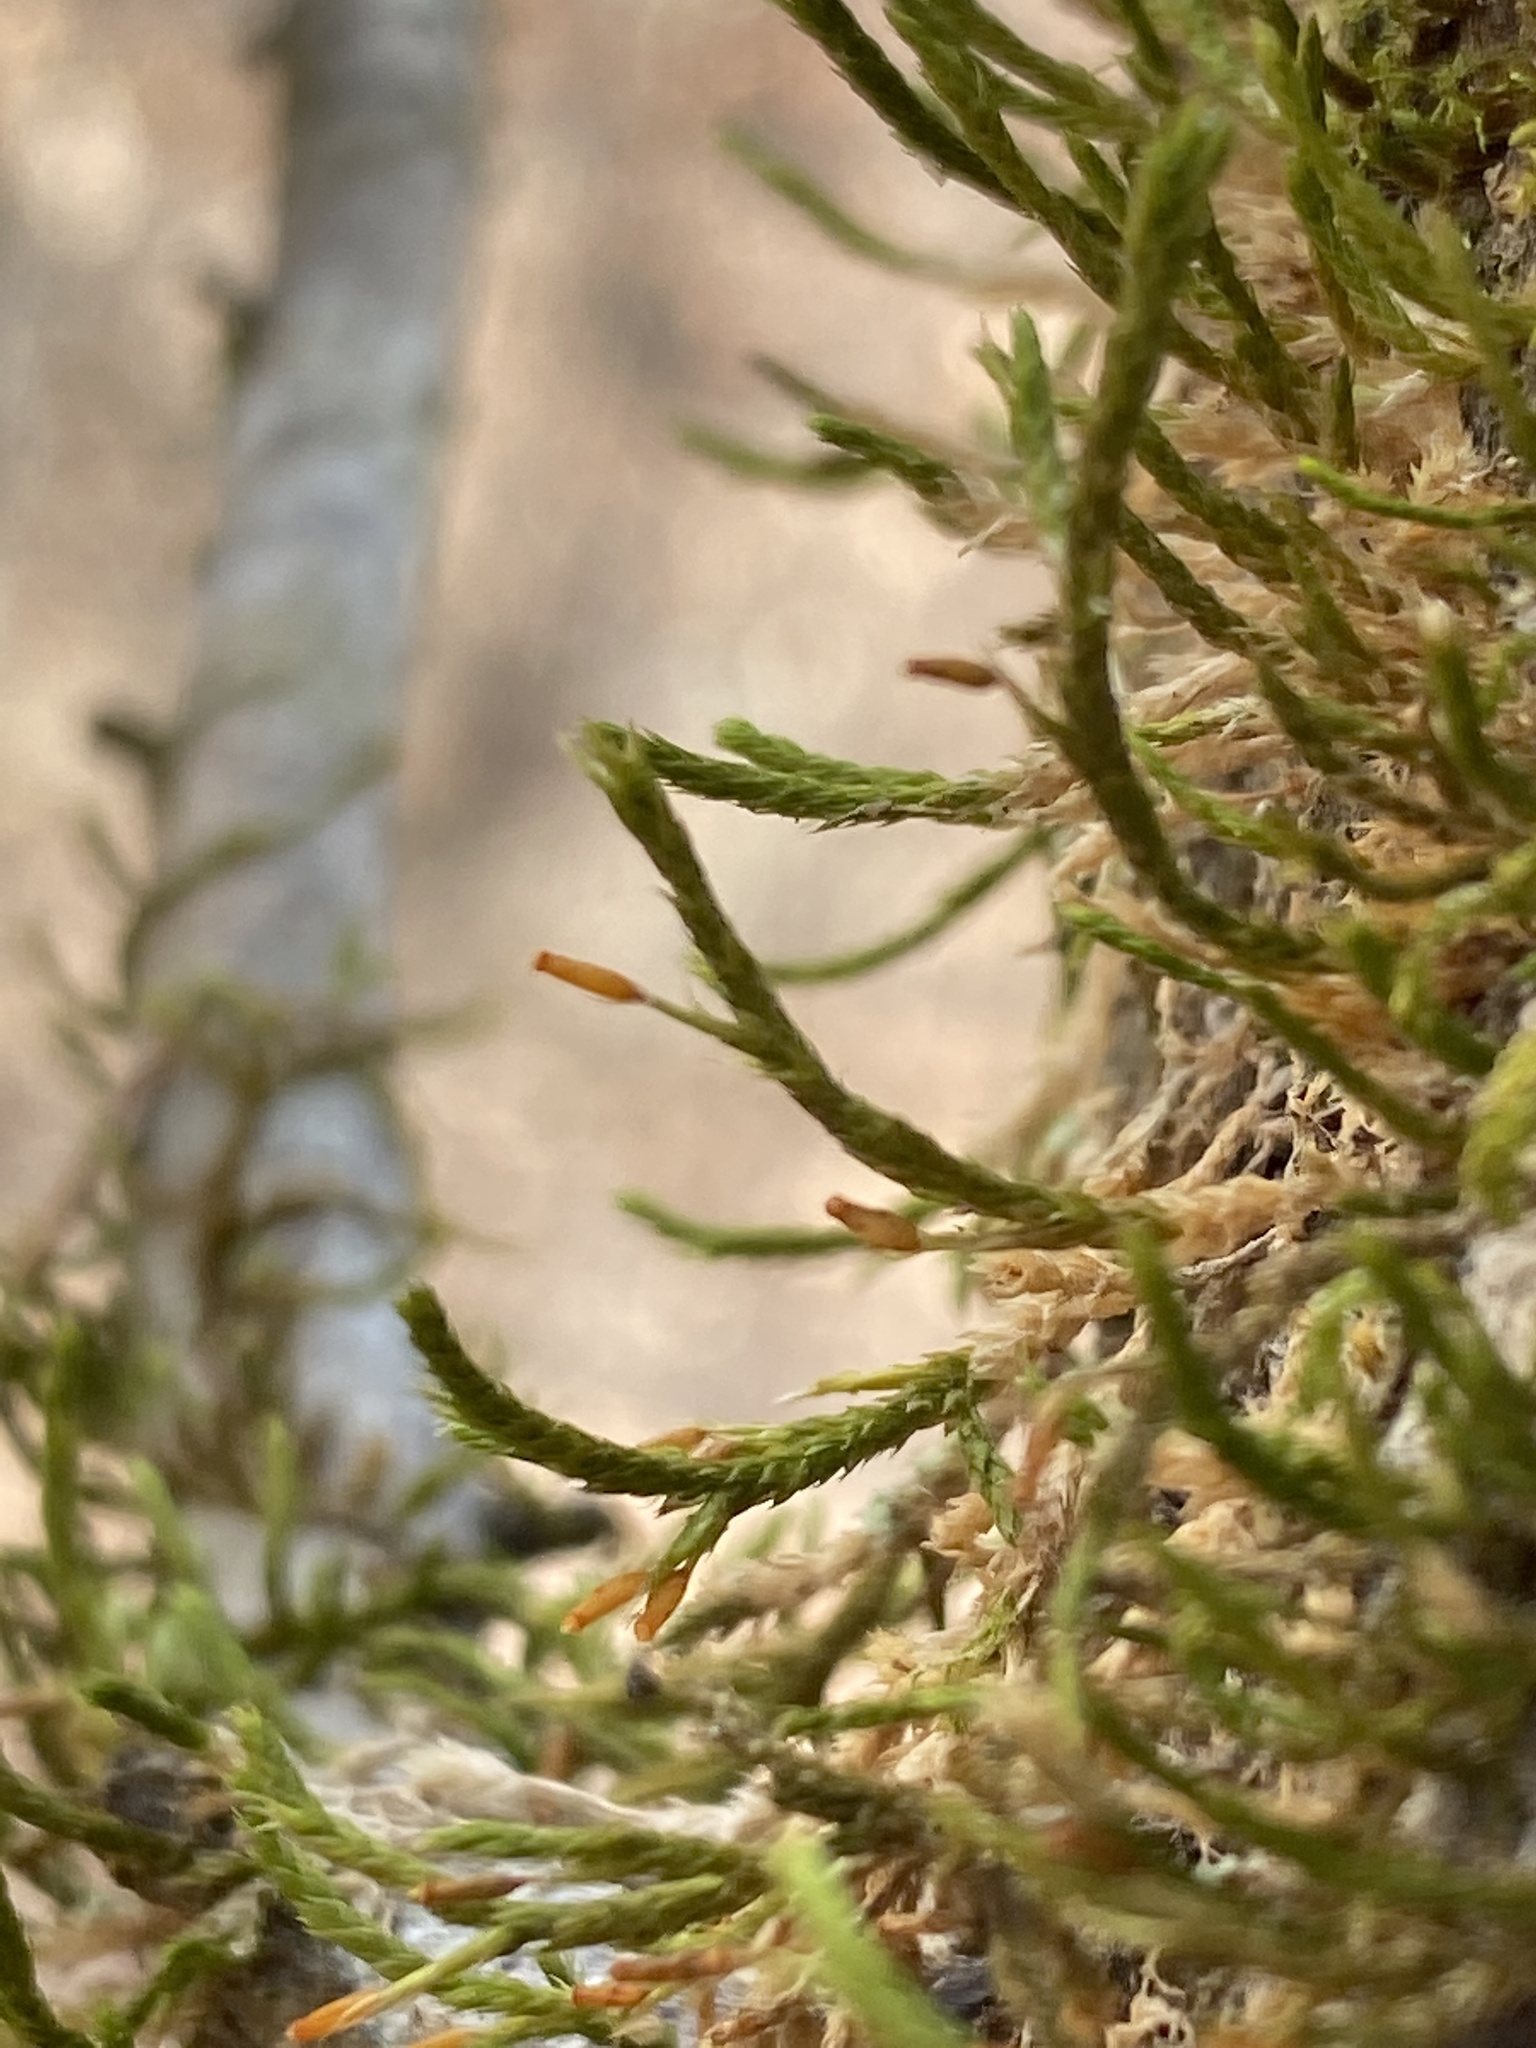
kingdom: Plantae
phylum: Bryophyta
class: Bryopsida
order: Hypnales
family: Leucodontaceae
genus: Leucodon
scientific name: Leucodon julaceus
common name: Smooth hook moss
